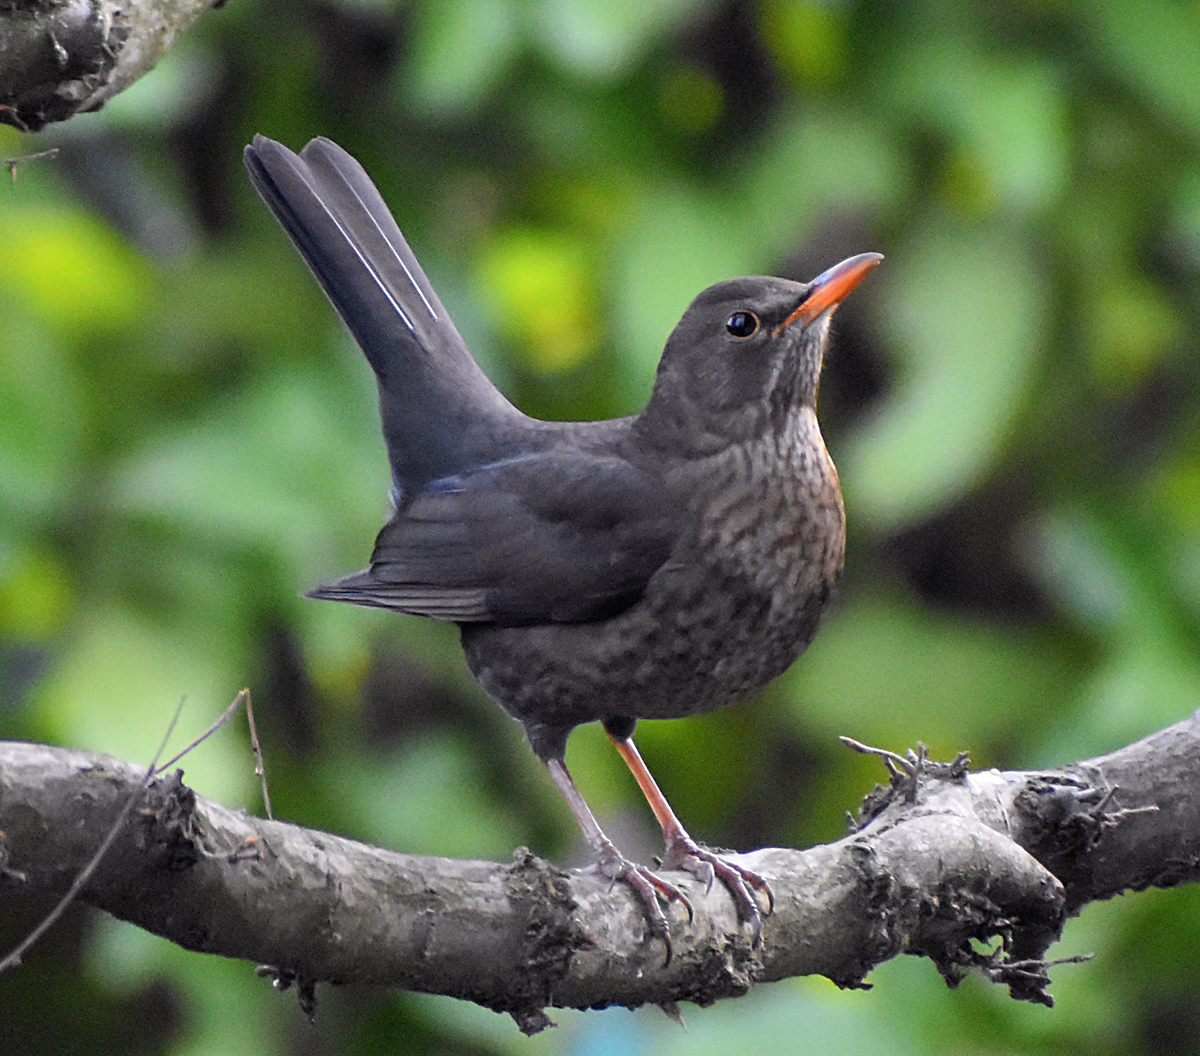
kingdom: Animalia
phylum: Chordata
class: Aves
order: Passeriformes
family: Turdidae
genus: Turdus
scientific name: Turdus merula
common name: Common blackbird
